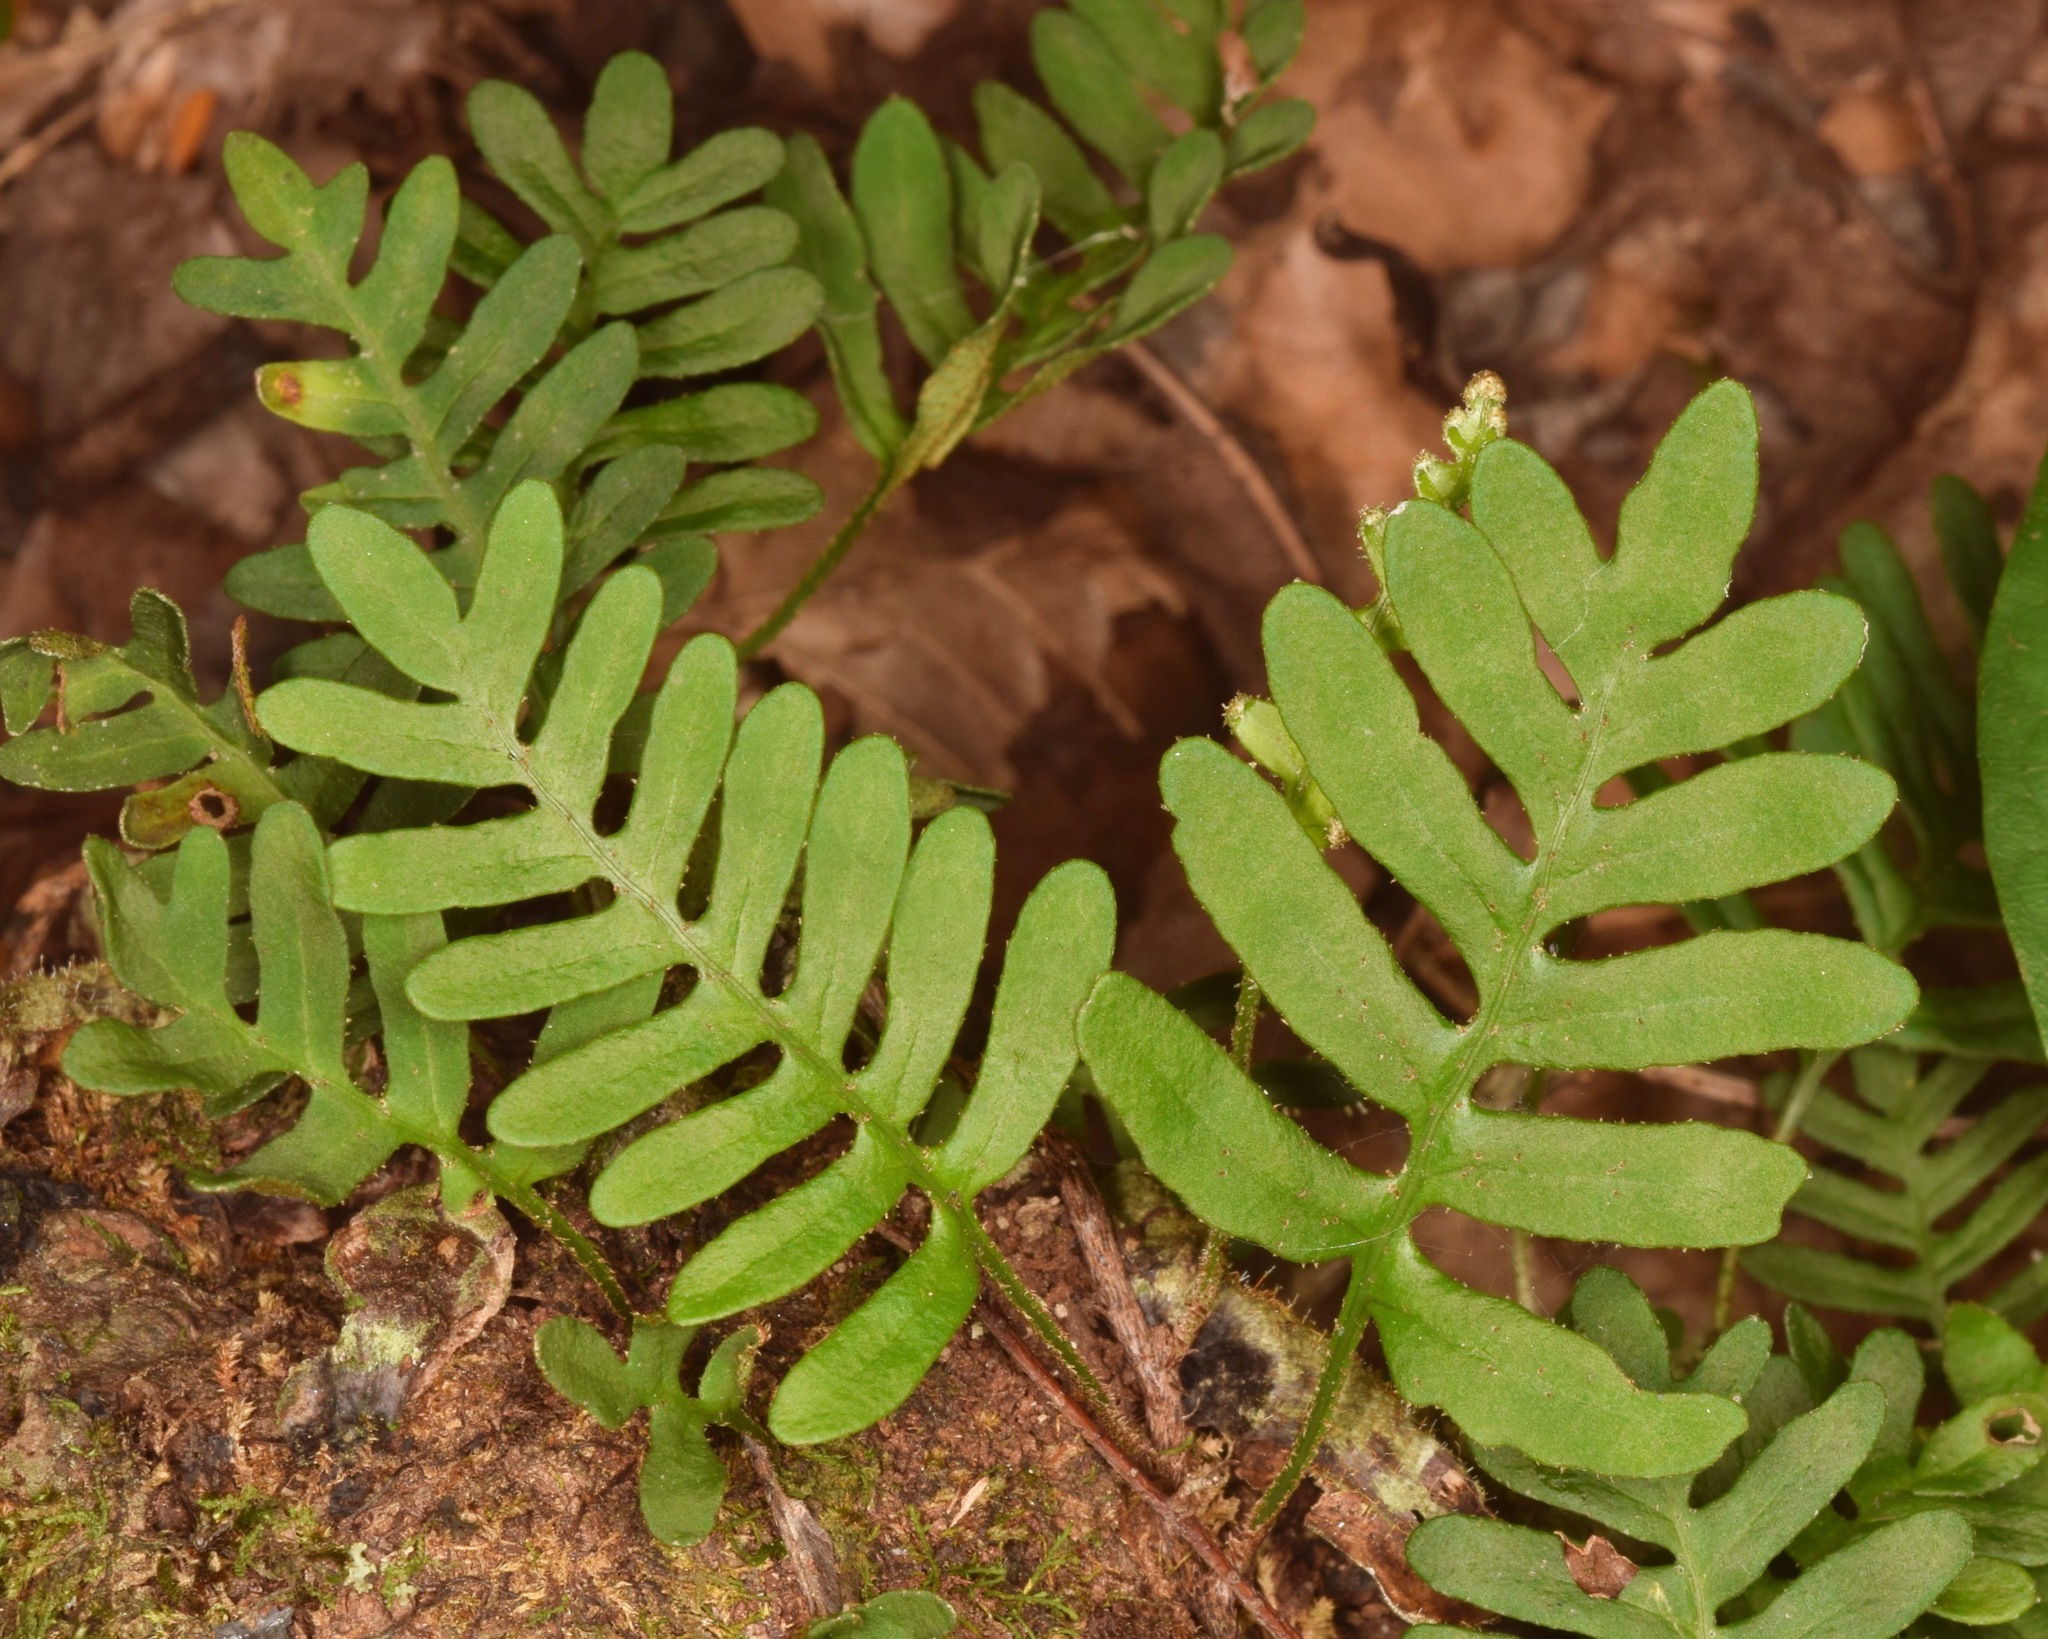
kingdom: Plantae
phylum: Tracheophyta
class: Polypodiopsida
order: Polypodiales
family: Polypodiaceae
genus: Pleopeltis
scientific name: Pleopeltis michauxiana
